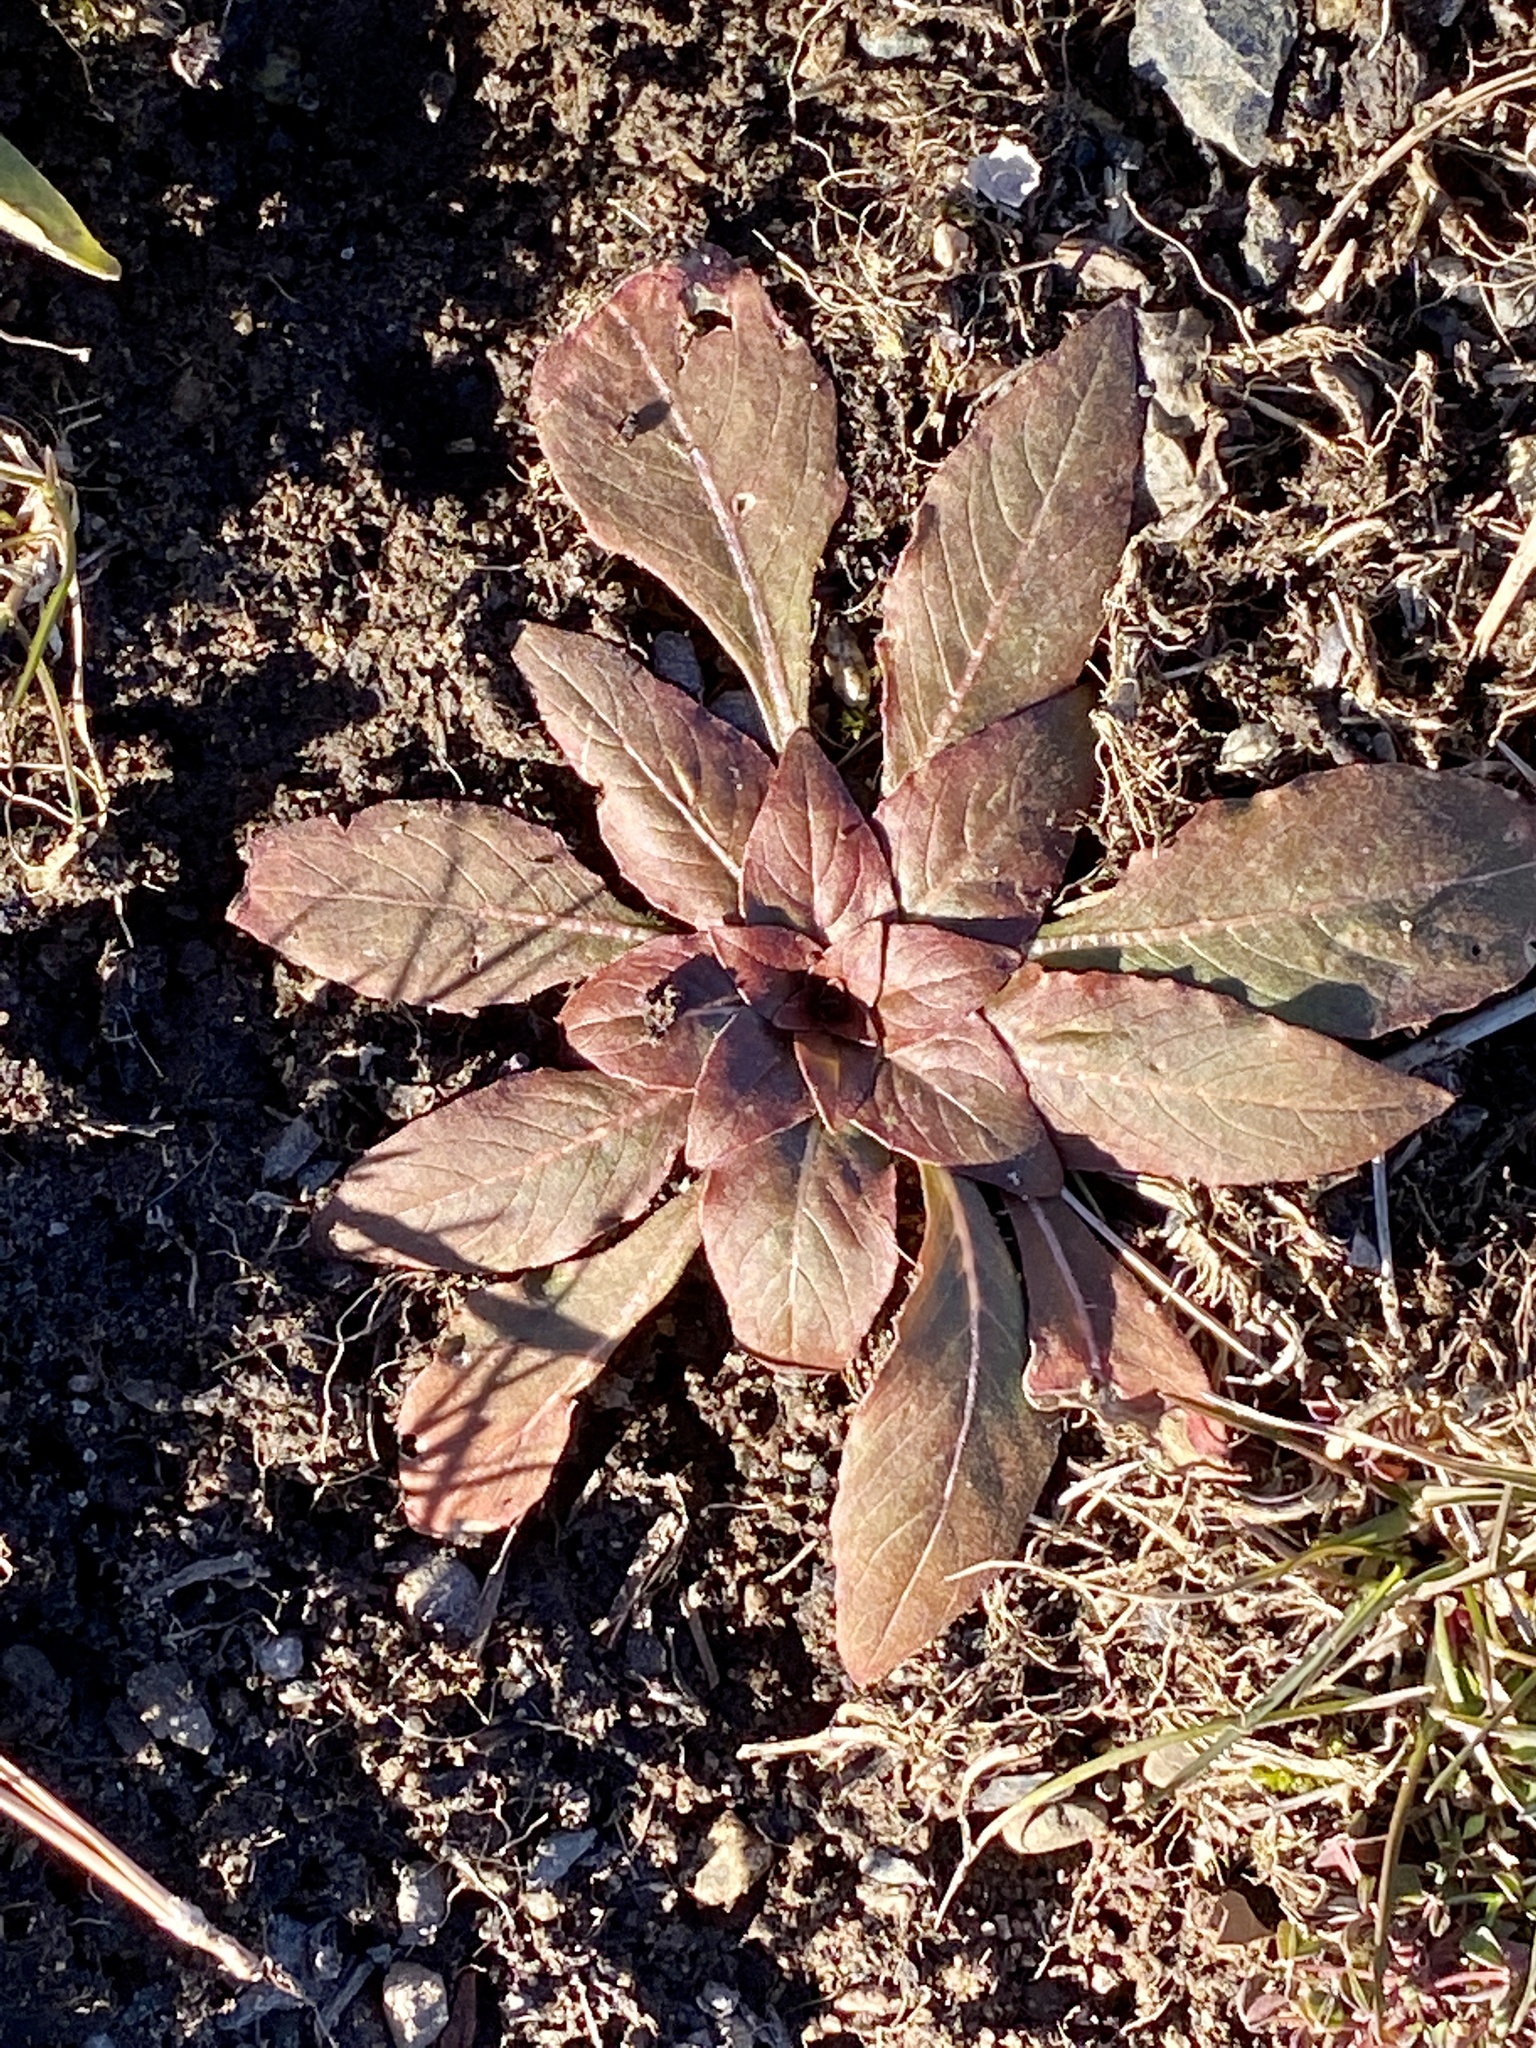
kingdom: Plantae
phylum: Tracheophyta
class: Magnoliopsida
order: Myrtales
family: Onagraceae
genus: Oenothera
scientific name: Oenothera biennis
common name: Common evening-primrose
